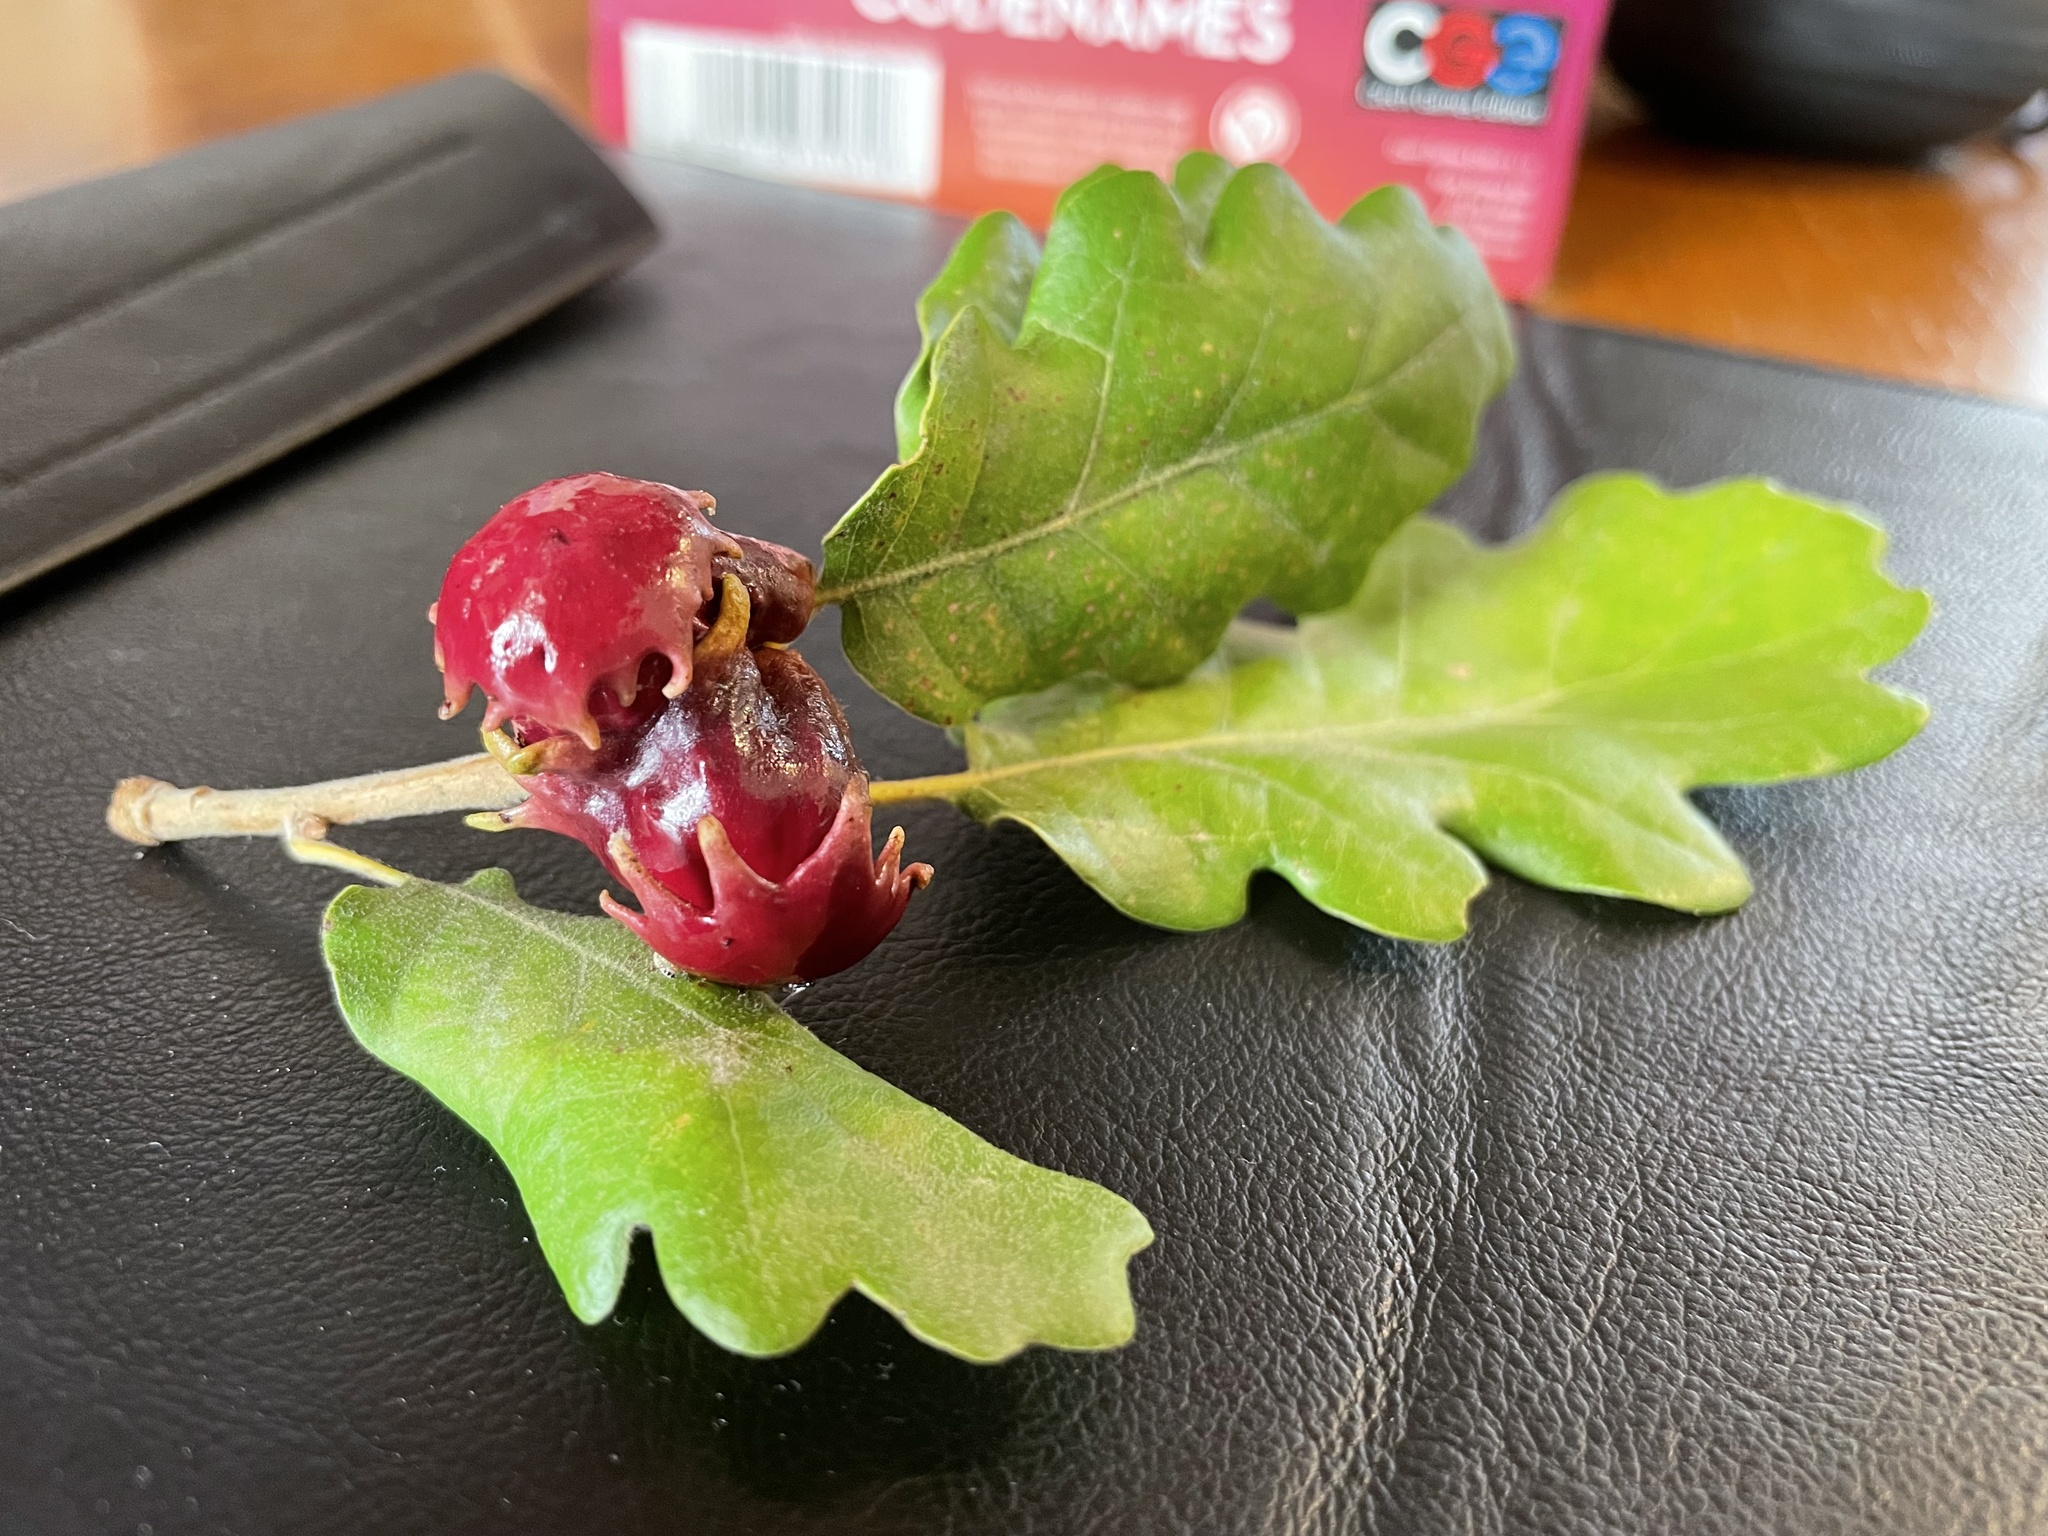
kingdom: Animalia
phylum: Arthropoda
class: Insecta
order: Hymenoptera
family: Cynipidae
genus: Andricus
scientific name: Andricus dentimitratus
